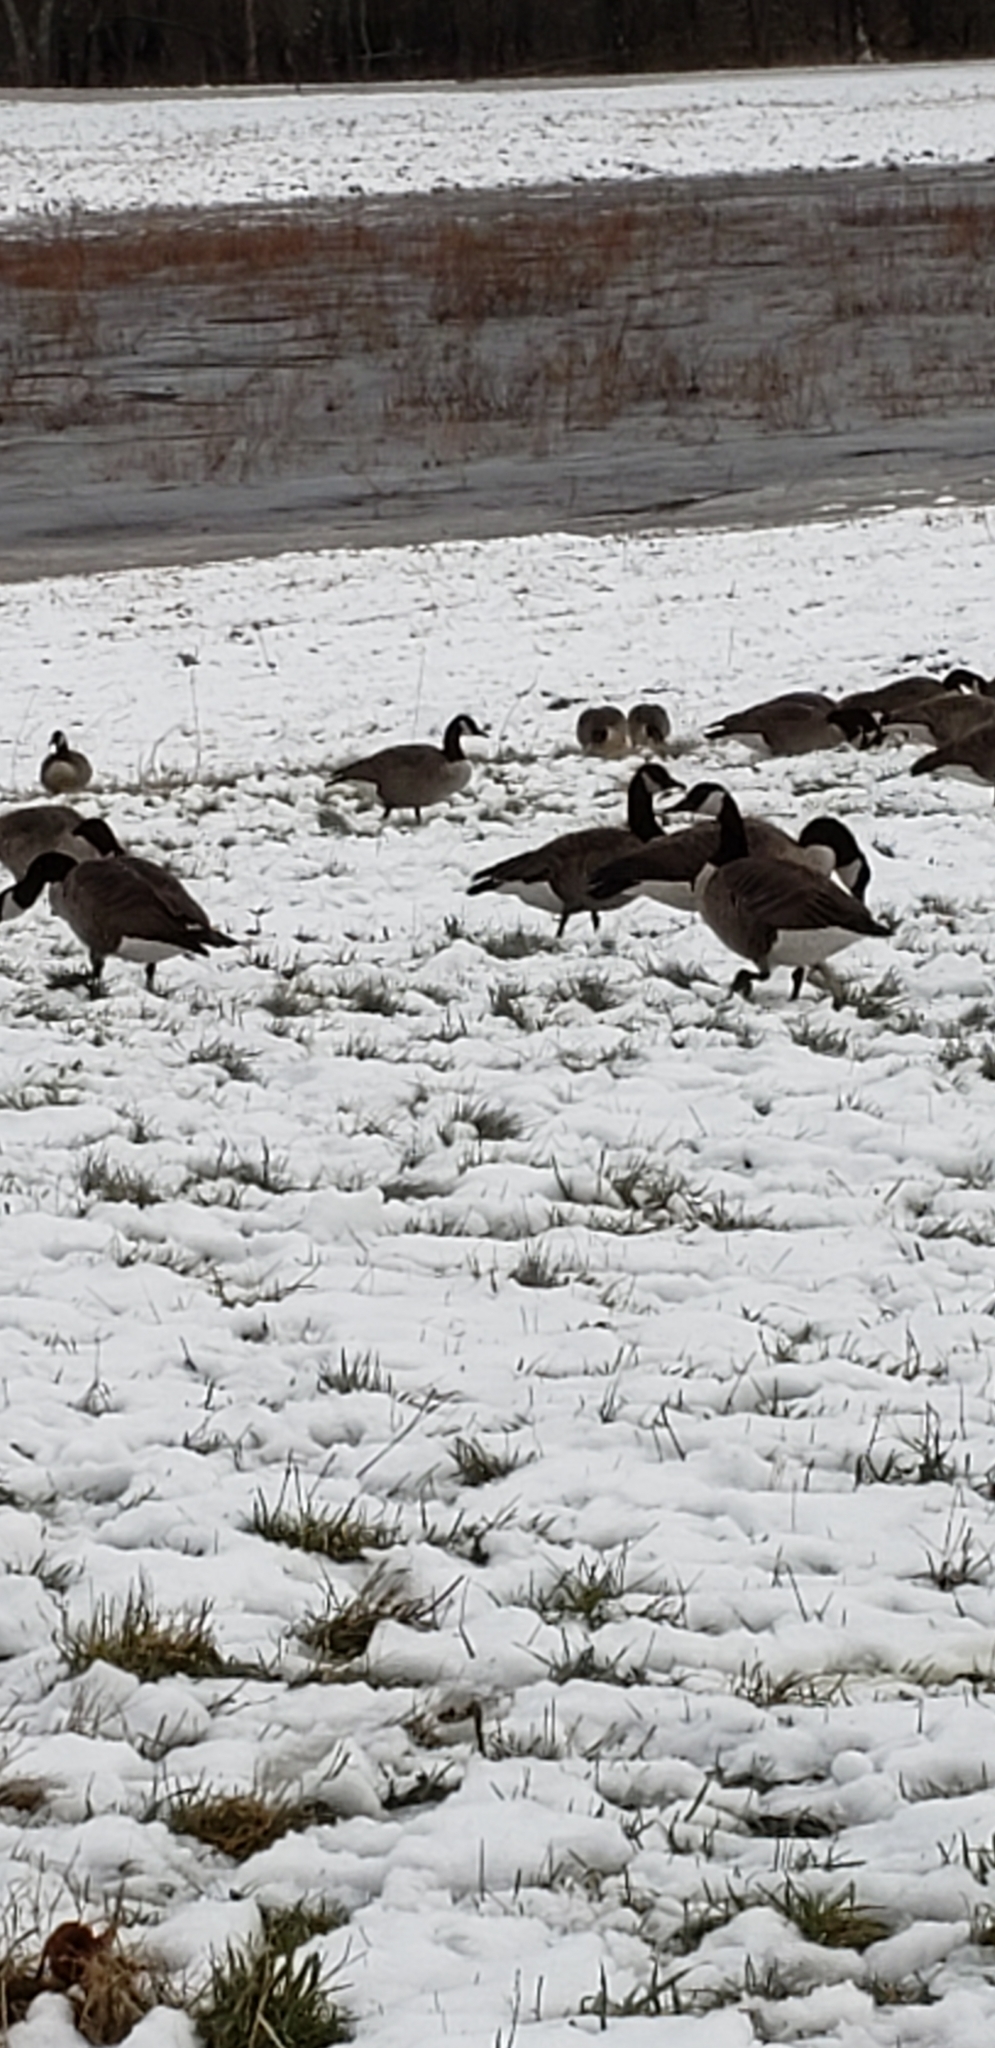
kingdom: Animalia
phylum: Chordata
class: Aves
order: Anseriformes
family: Anatidae
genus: Branta
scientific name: Branta canadensis
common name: Canada goose
